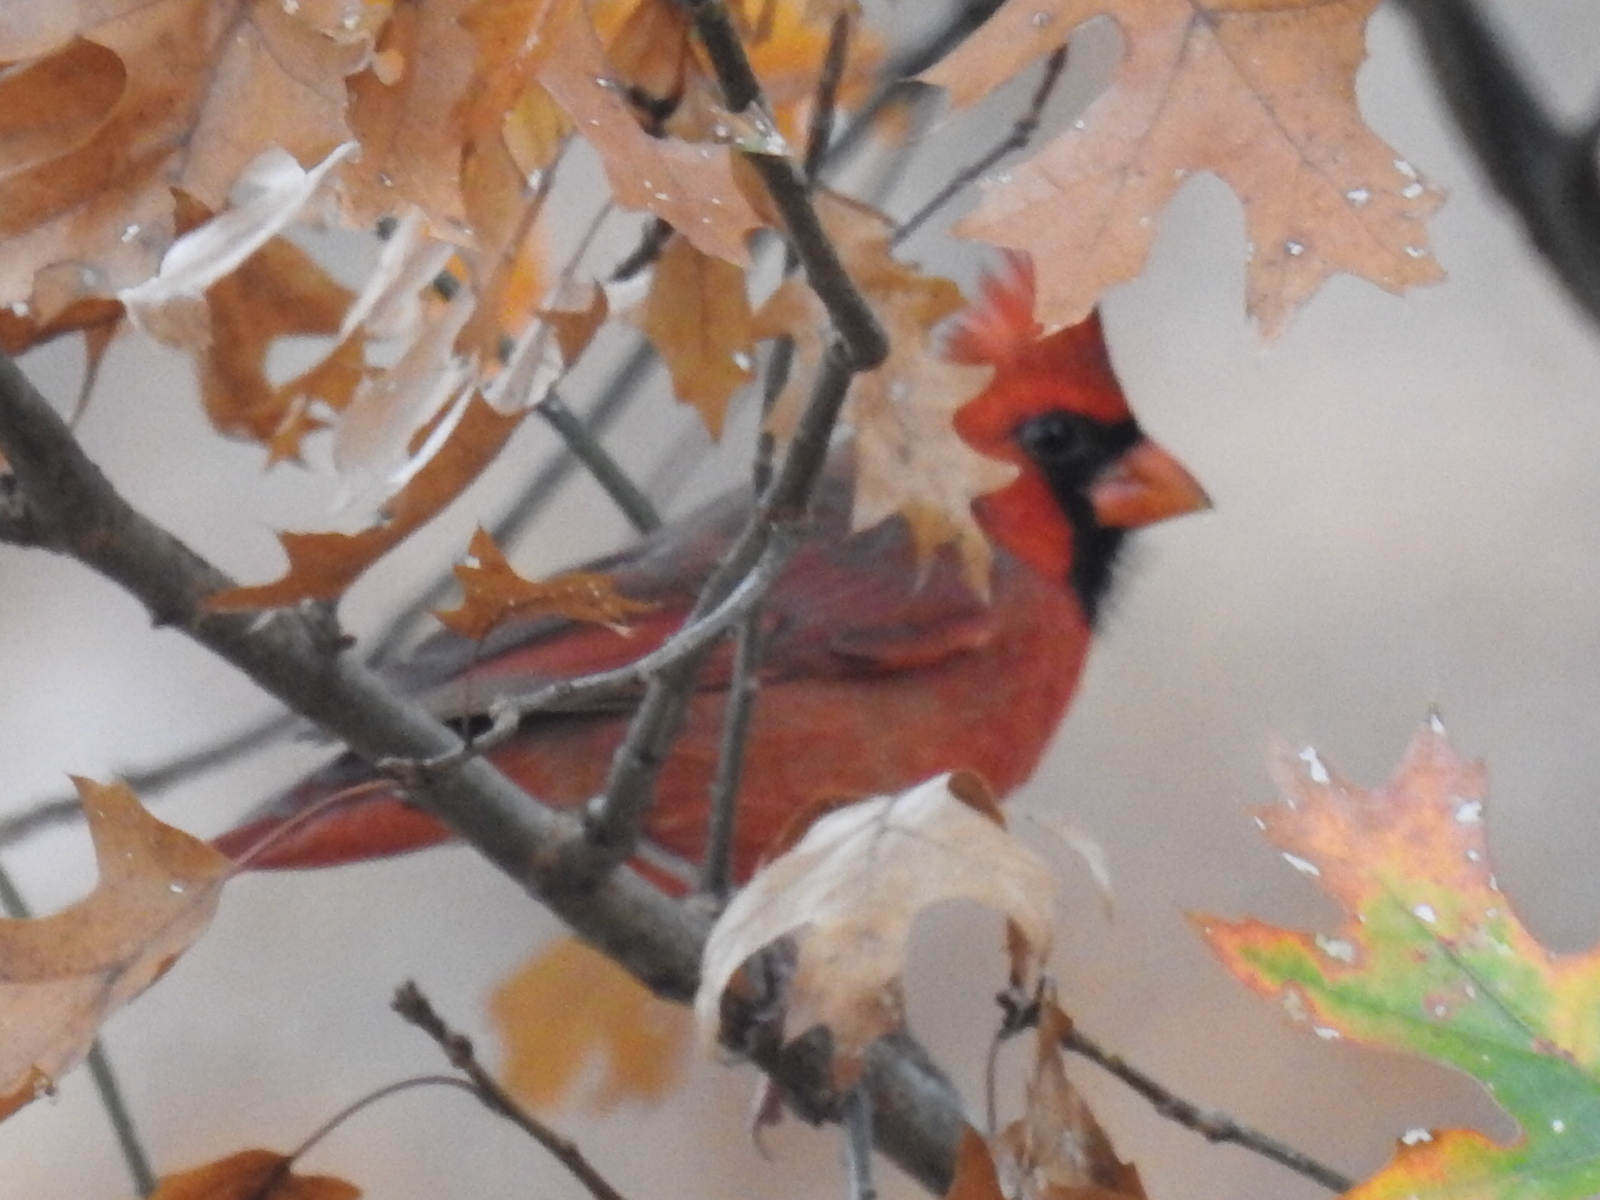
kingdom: Animalia
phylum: Chordata
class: Aves
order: Passeriformes
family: Cardinalidae
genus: Cardinalis
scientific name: Cardinalis cardinalis
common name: Northern cardinal
